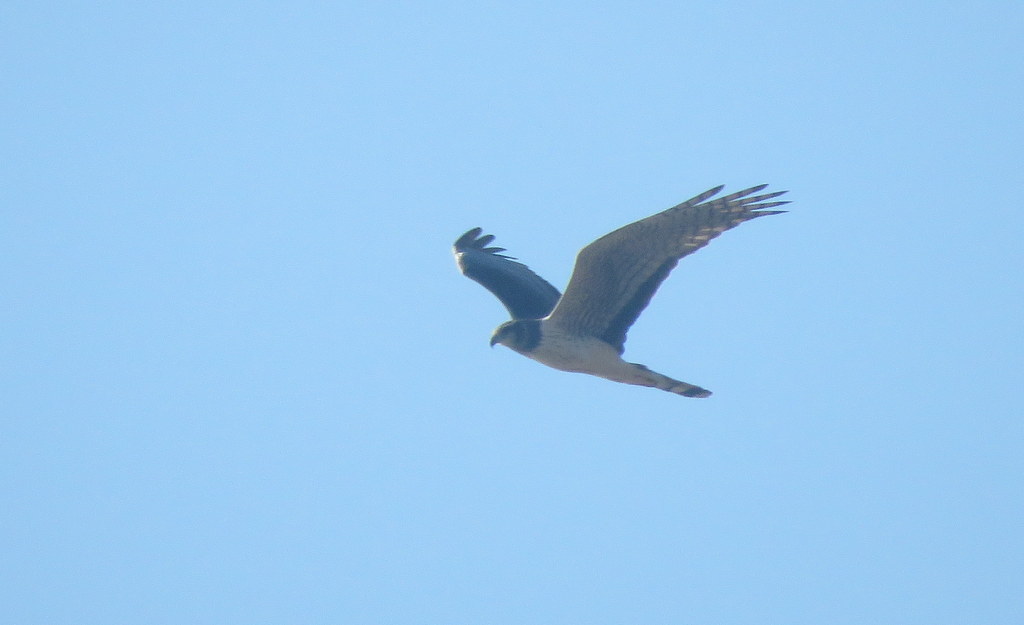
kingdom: Animalia
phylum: Chordata
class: Aves
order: Accipitriformes
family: Accipitridae
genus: Circus
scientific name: Circus buffoni
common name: Long-winged harrier
